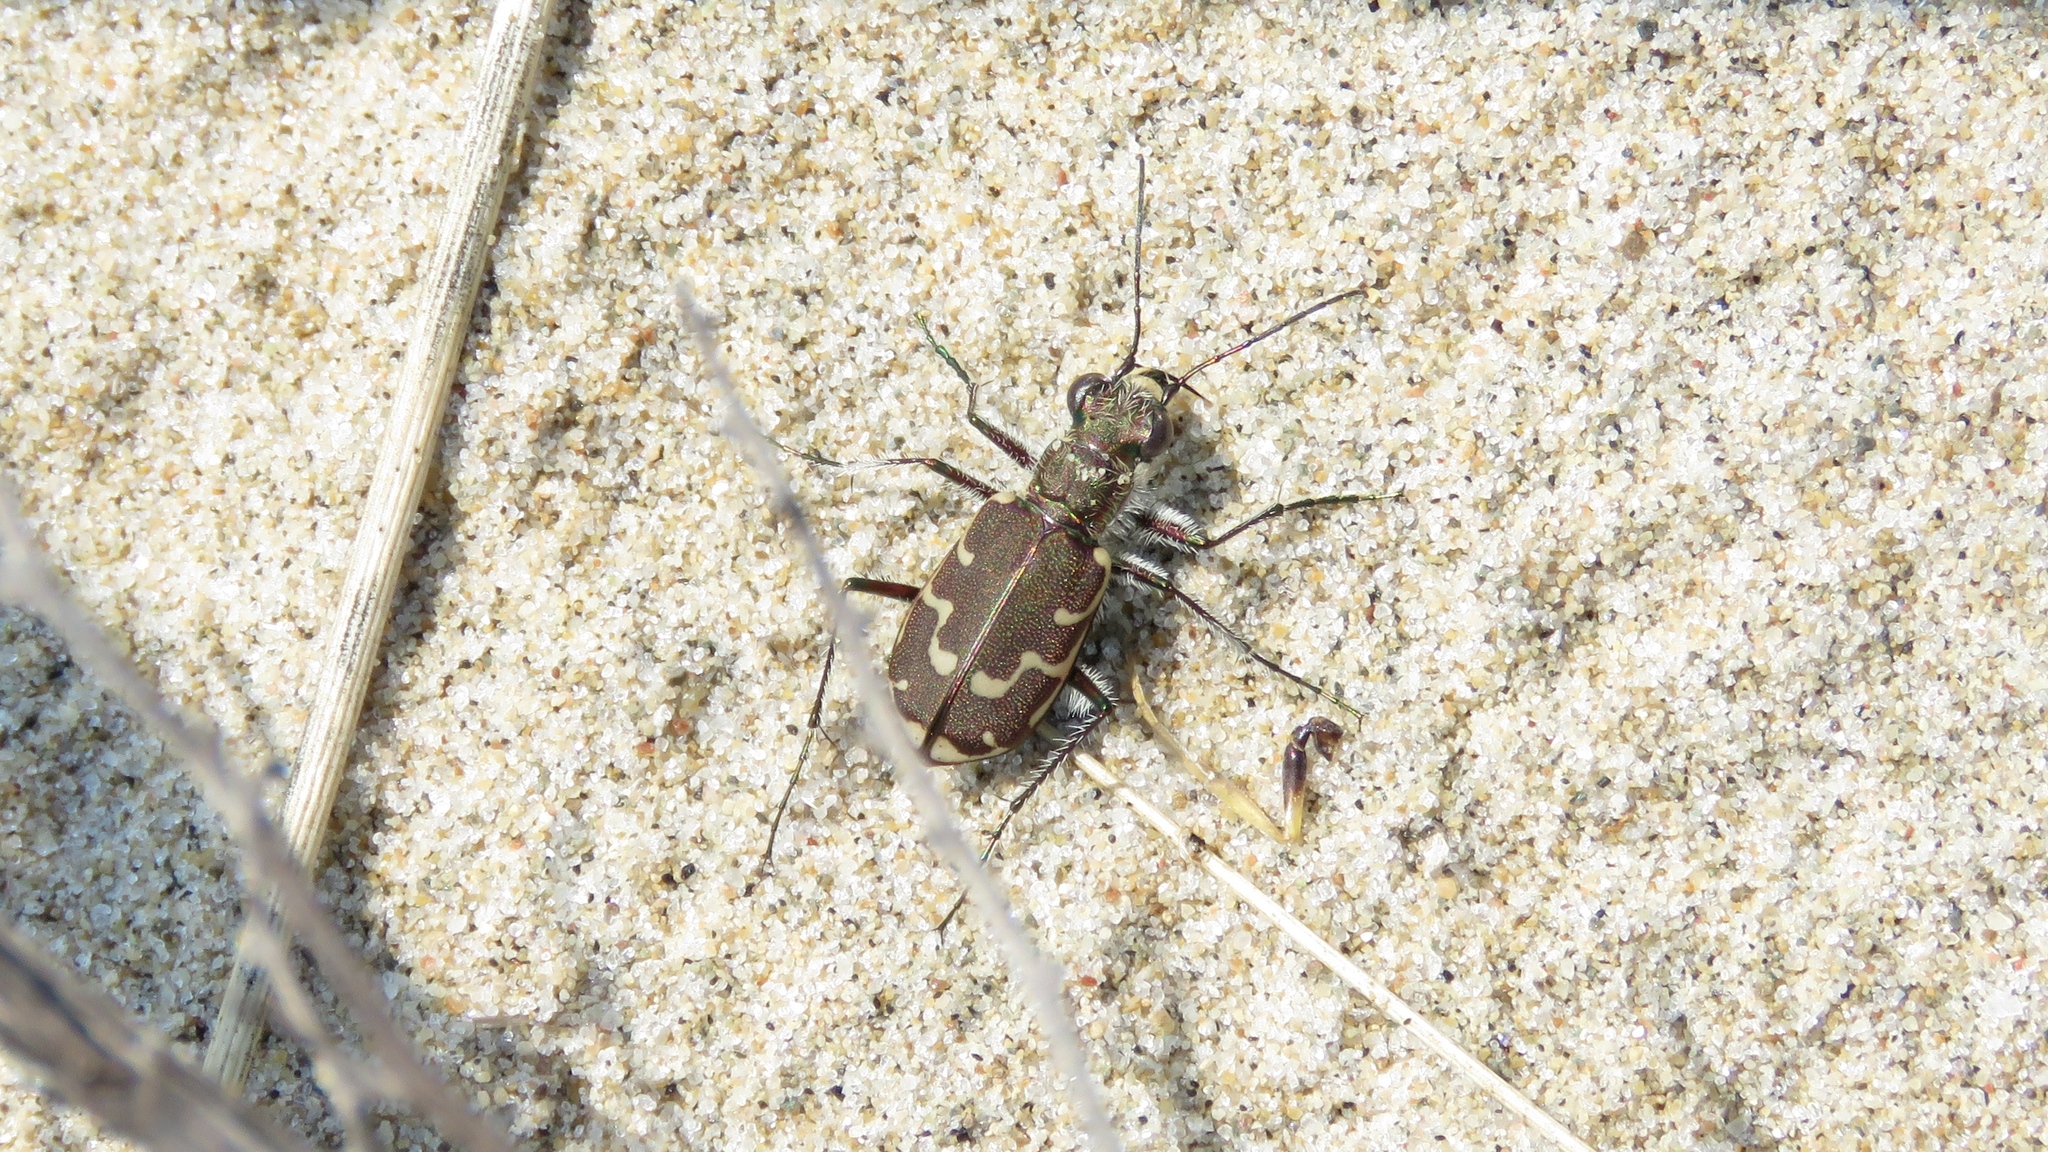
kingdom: Animalia
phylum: Arthropoda
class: Insecta
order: Coleoptera
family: Carabidae
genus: Cicindela
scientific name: Cicindela repanda
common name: Bronzed tiger beetle
